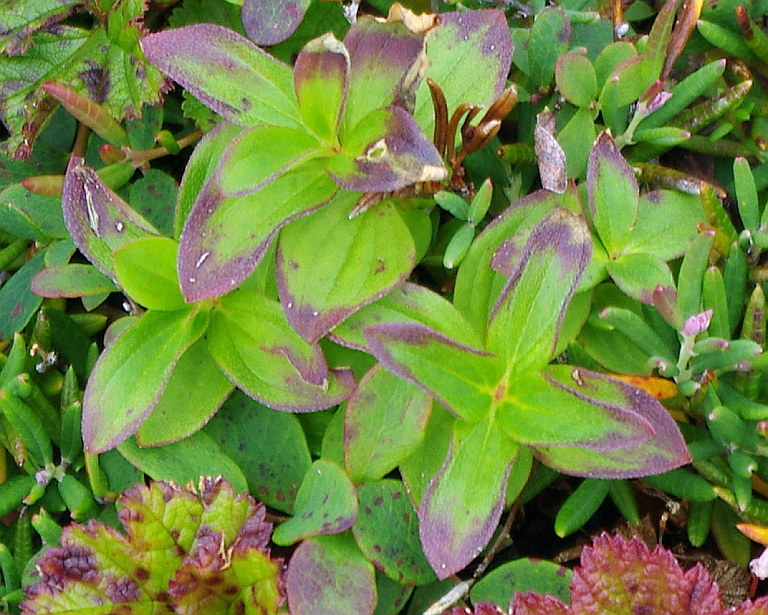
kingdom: Plantae
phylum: Tracheophyta
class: Magnoliopsida
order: Cornales
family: Cornaceae
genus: Cornus
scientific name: Cornus suecica
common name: Dwarf cornel
